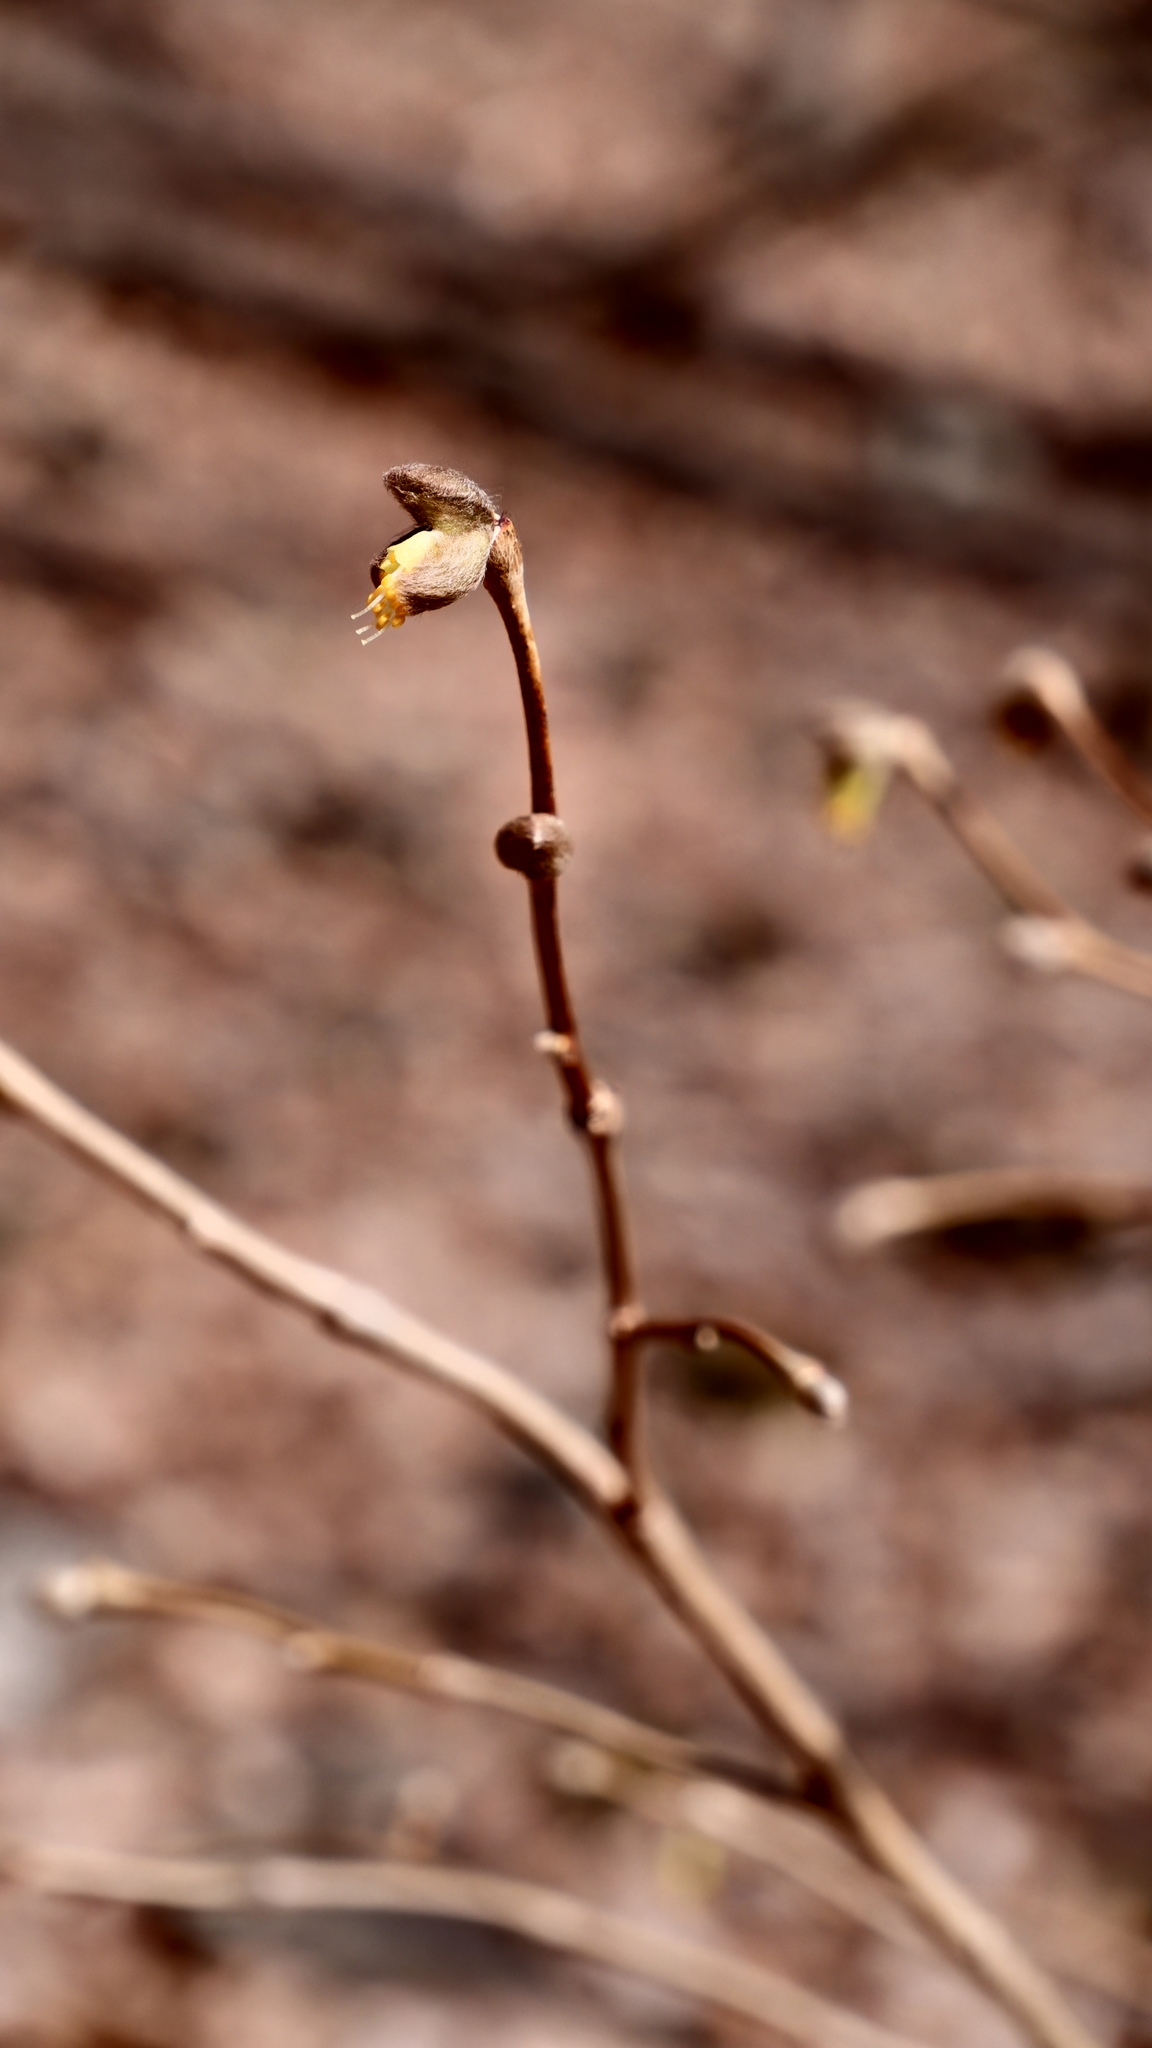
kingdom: Plantae
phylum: Tracheophyta
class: Magnoliopsida
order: Malvales
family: Thymelaeaceae
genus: Dirca
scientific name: Dirca palustris
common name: Leatherwood
